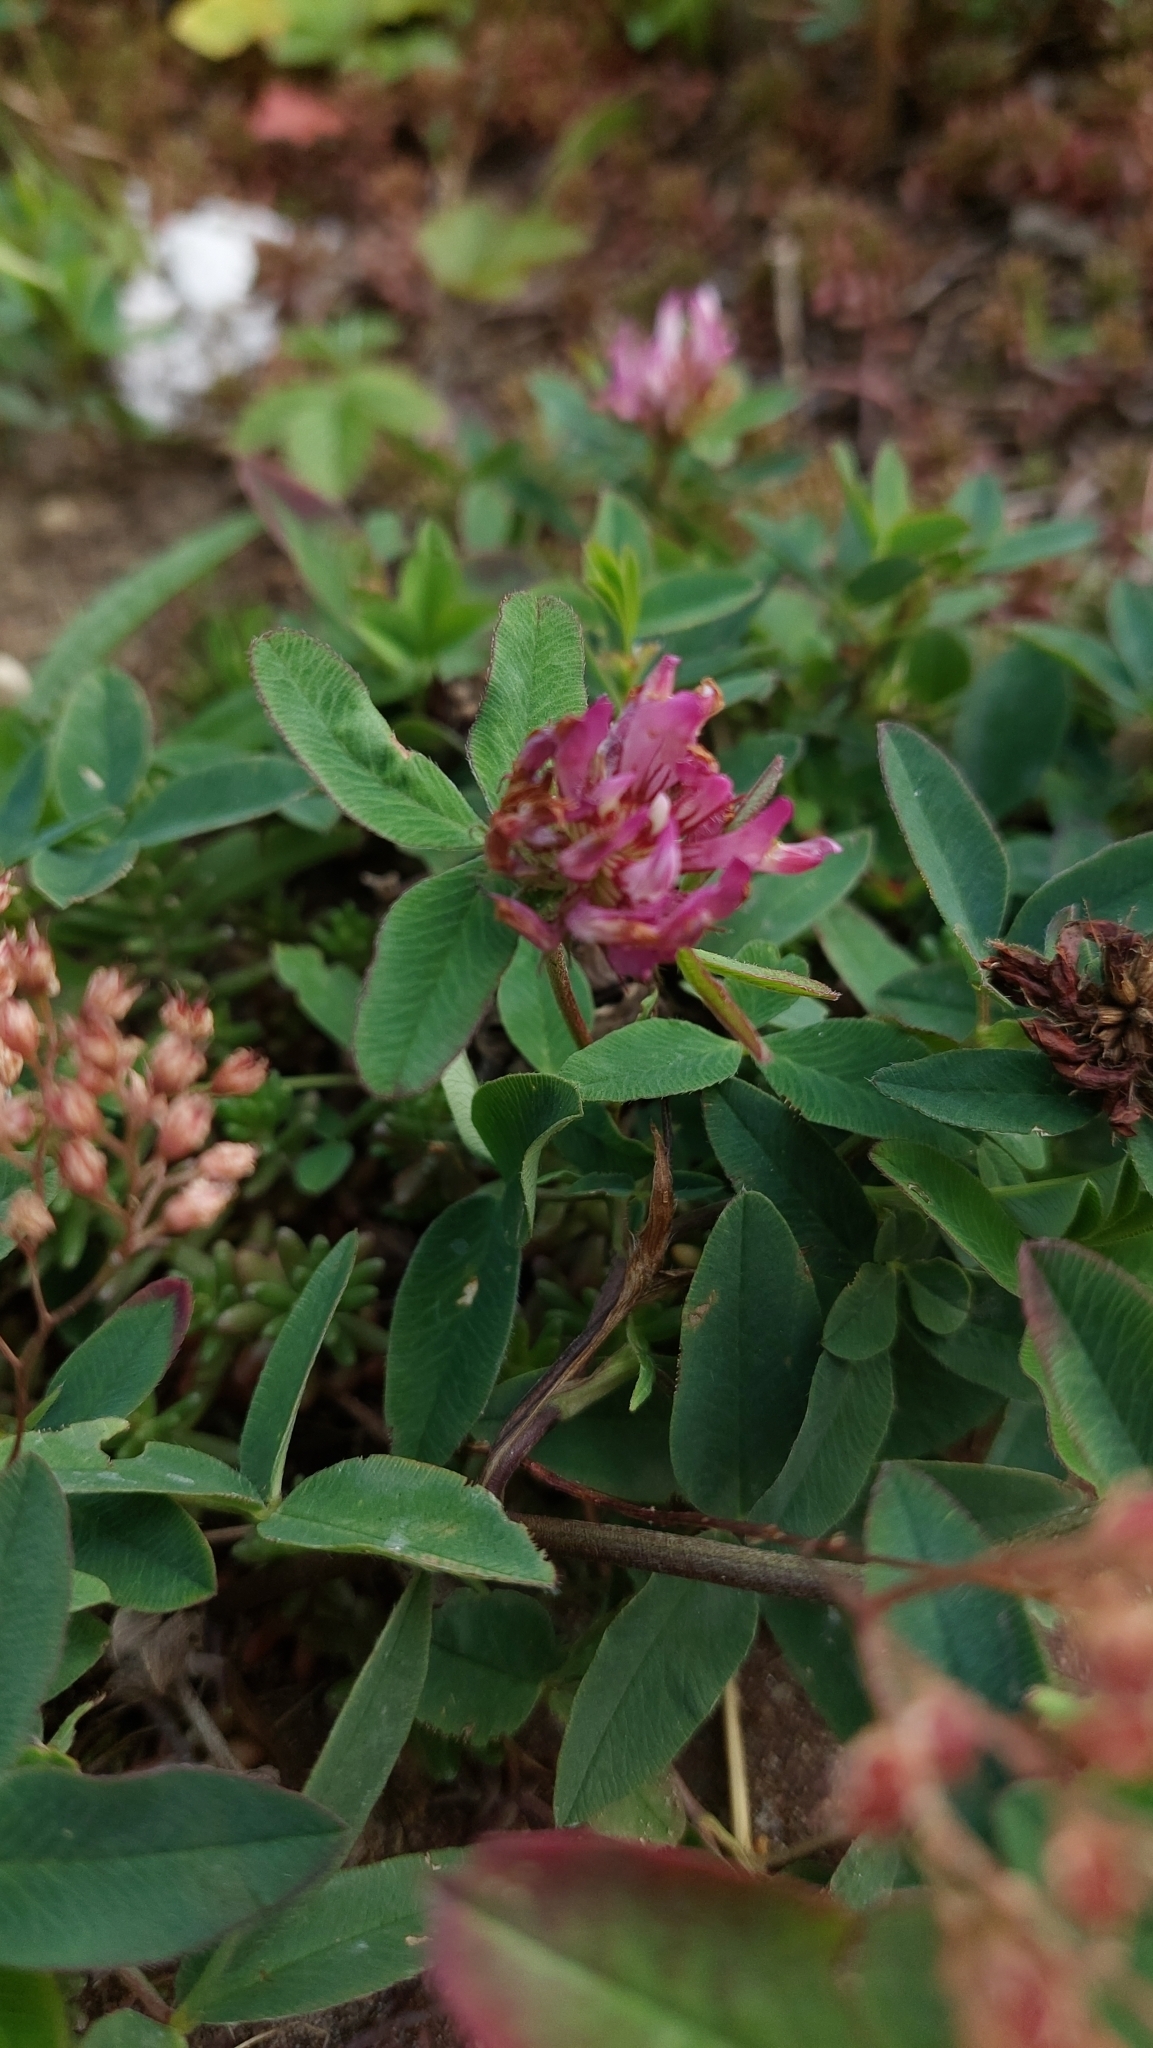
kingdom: Plantae
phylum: Tracheophyta
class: Magnoliopsida
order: Fabales
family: Fabaceae
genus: Trifolium
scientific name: Trifolium medium
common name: Zigzag clover
